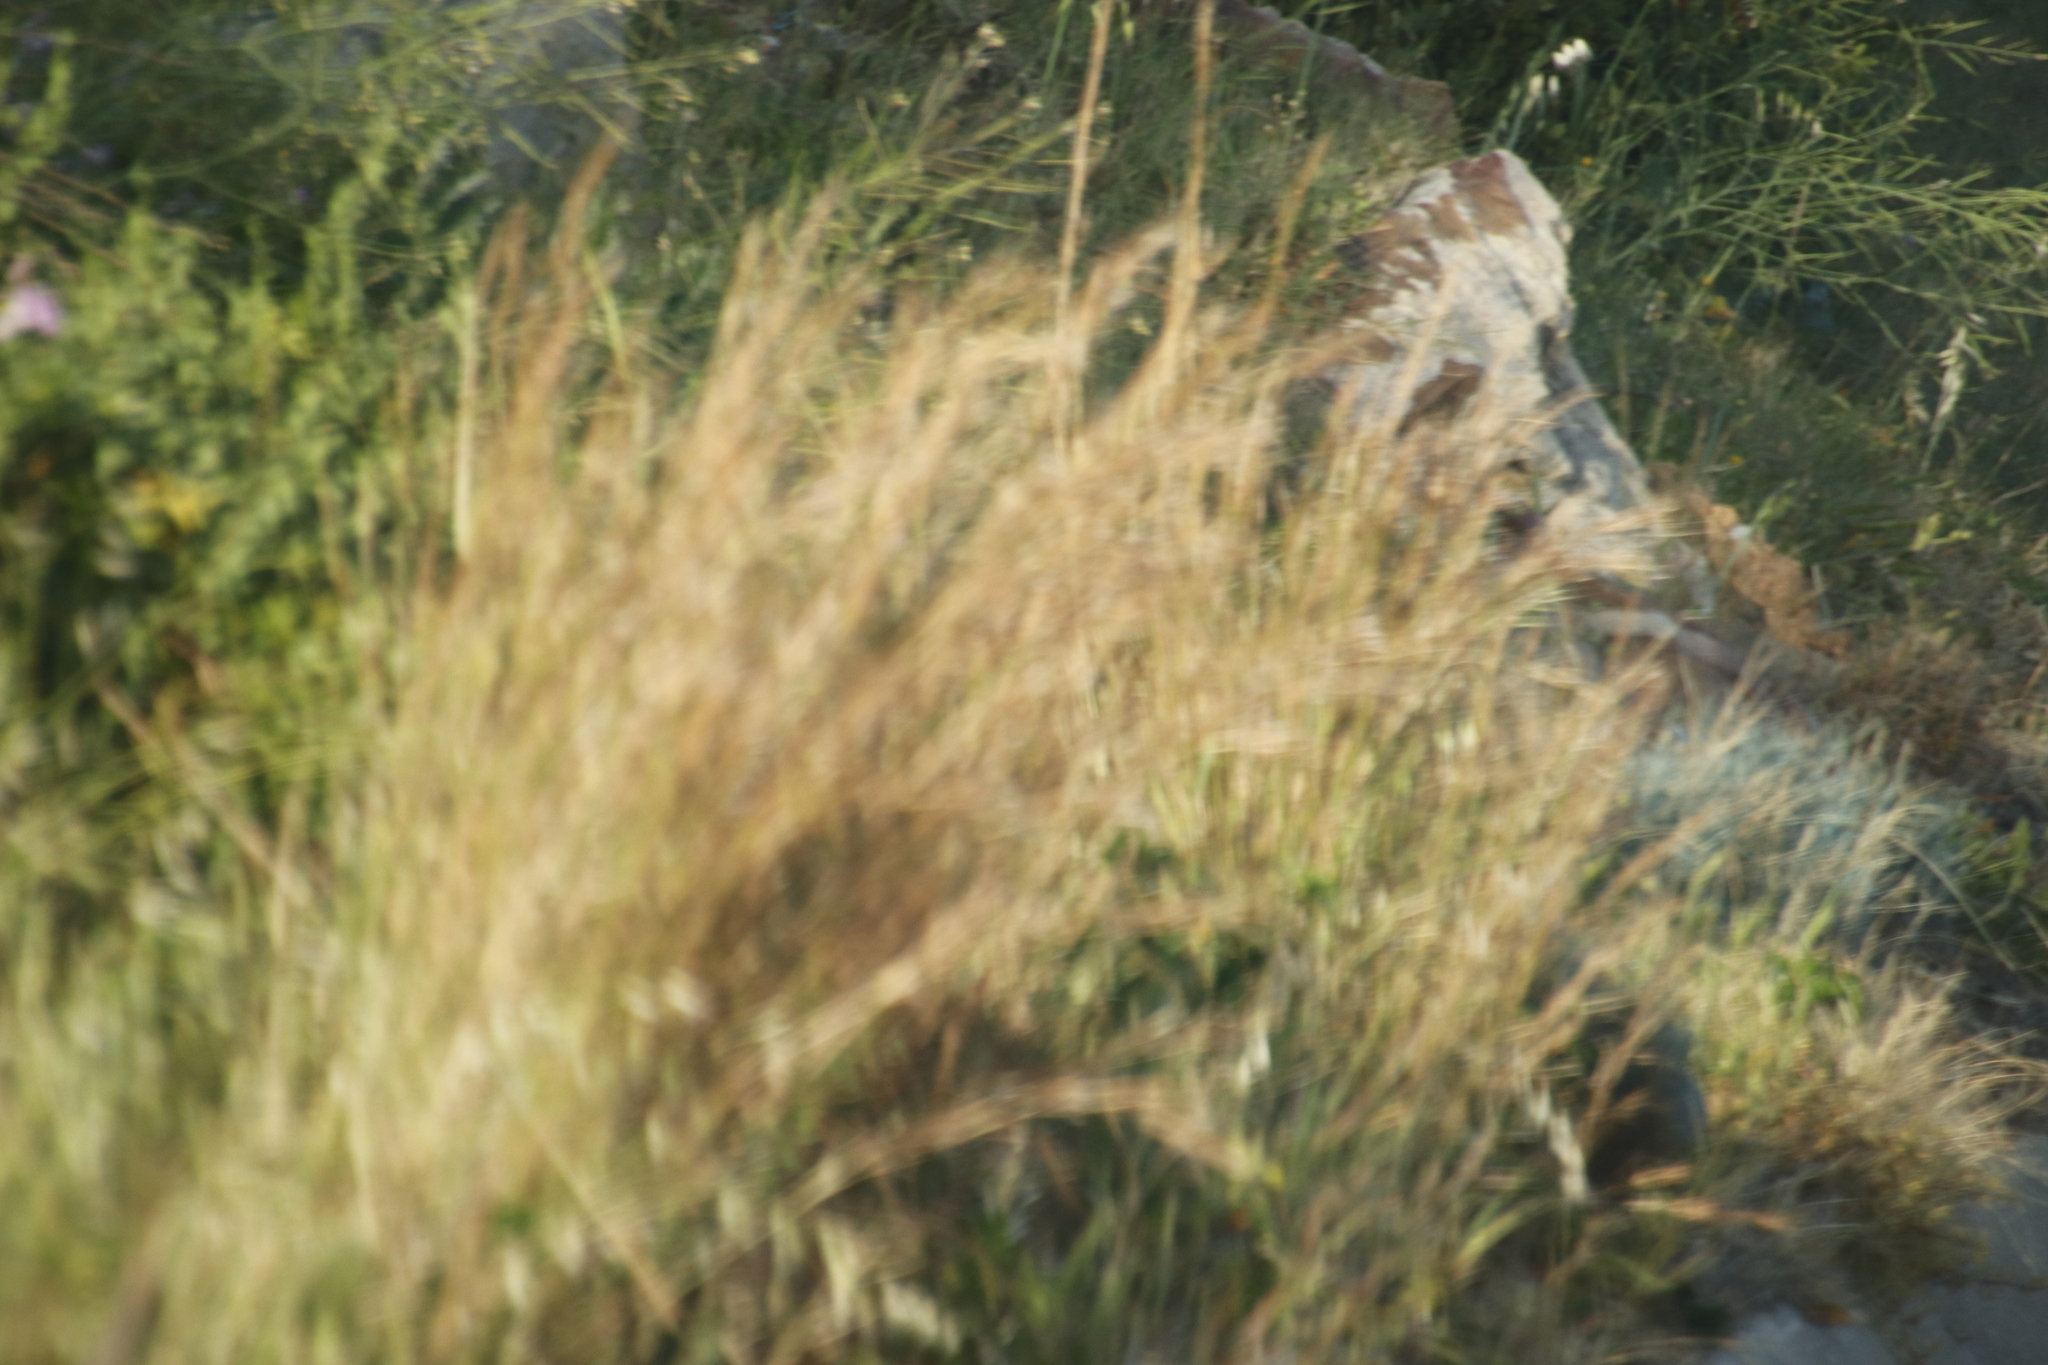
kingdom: Plantae
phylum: Tracheophyta
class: Liliopsida
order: Poales
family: Poaceae
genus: Hyparrhenia
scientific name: Hyparrhenia hirta
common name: Thatching grass
